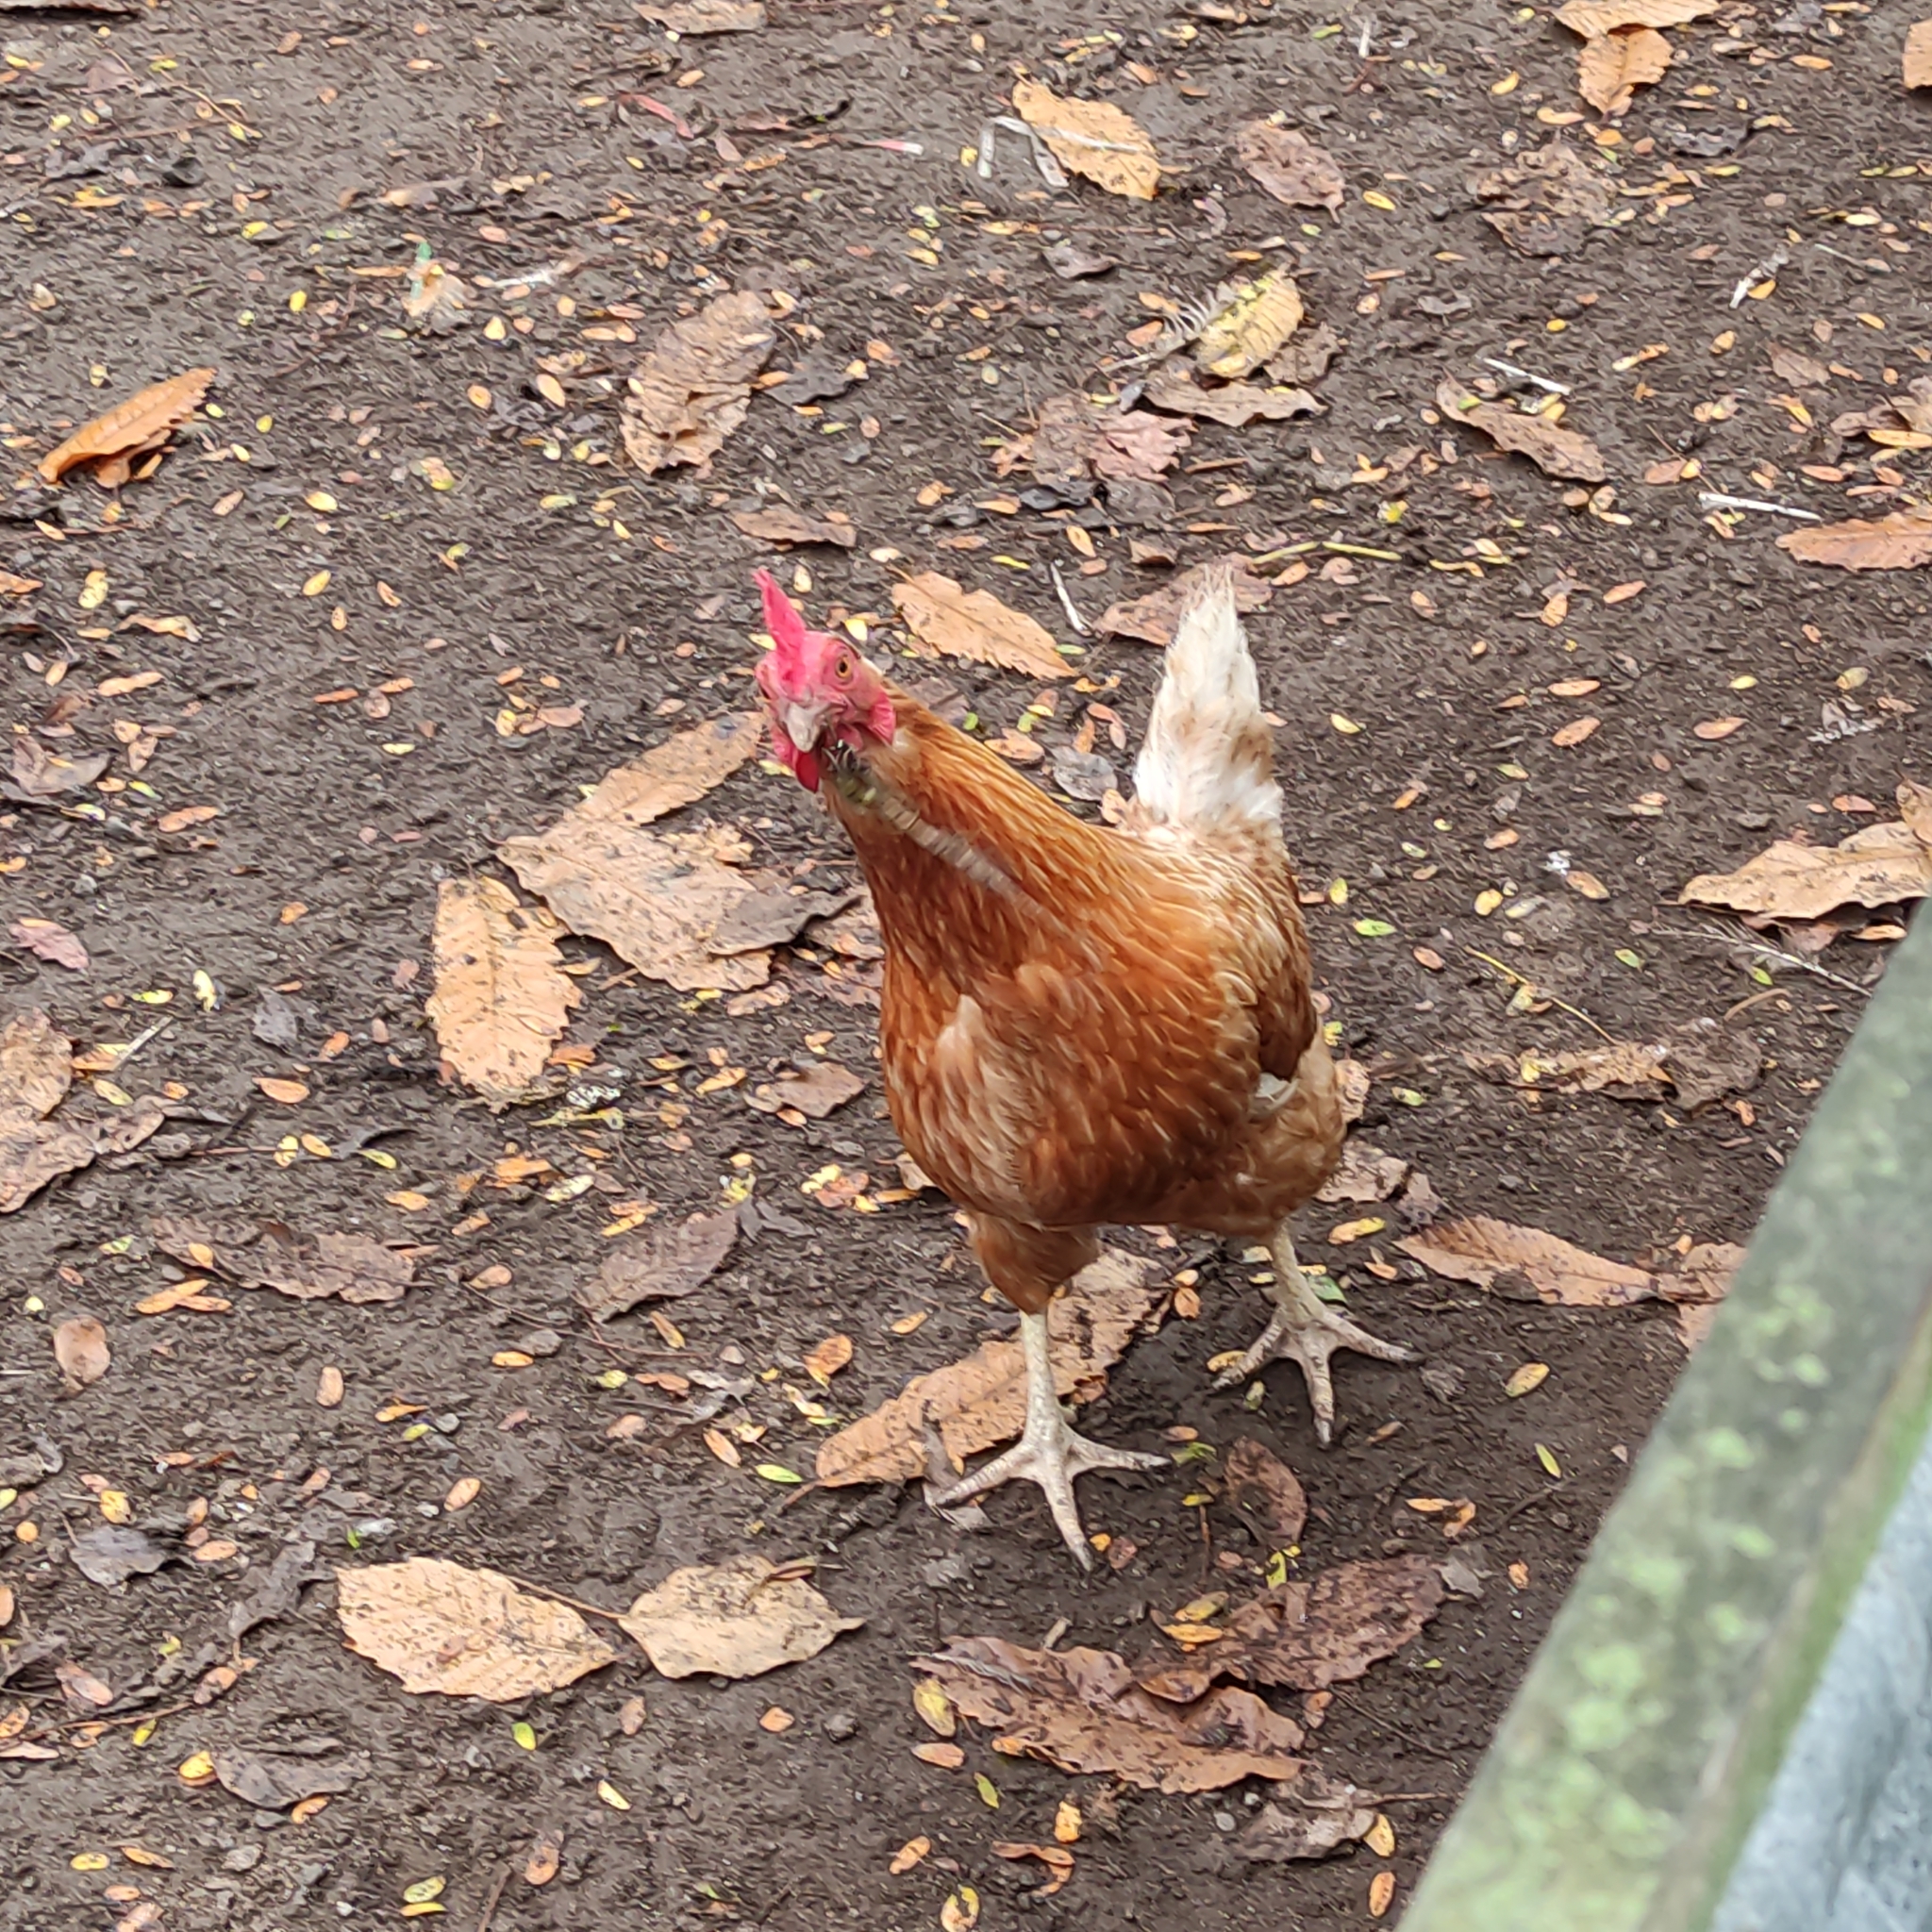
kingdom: Animalia
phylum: Chordata
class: Aves
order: Galliformes
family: Phasianidae
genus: Gallus
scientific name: Gallus gallus
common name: Red junglefowl
